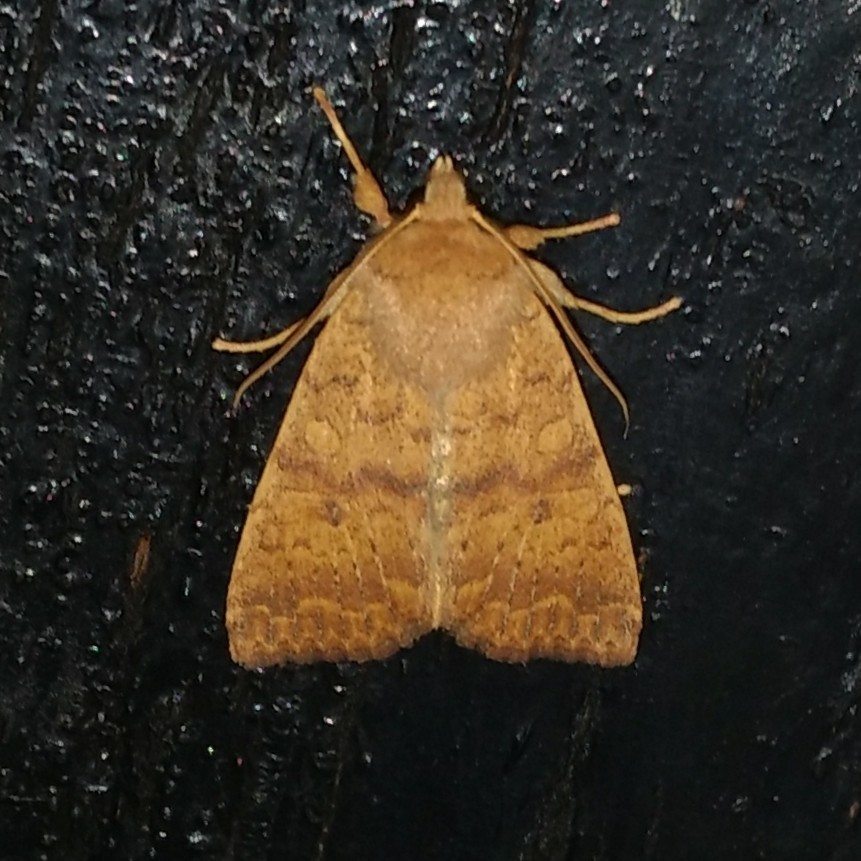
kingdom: Animalia
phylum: Arthropoda
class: Insecta
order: Lepidoptera
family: Noctuidae
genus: Agrochola
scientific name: Agrochola bicolorago
